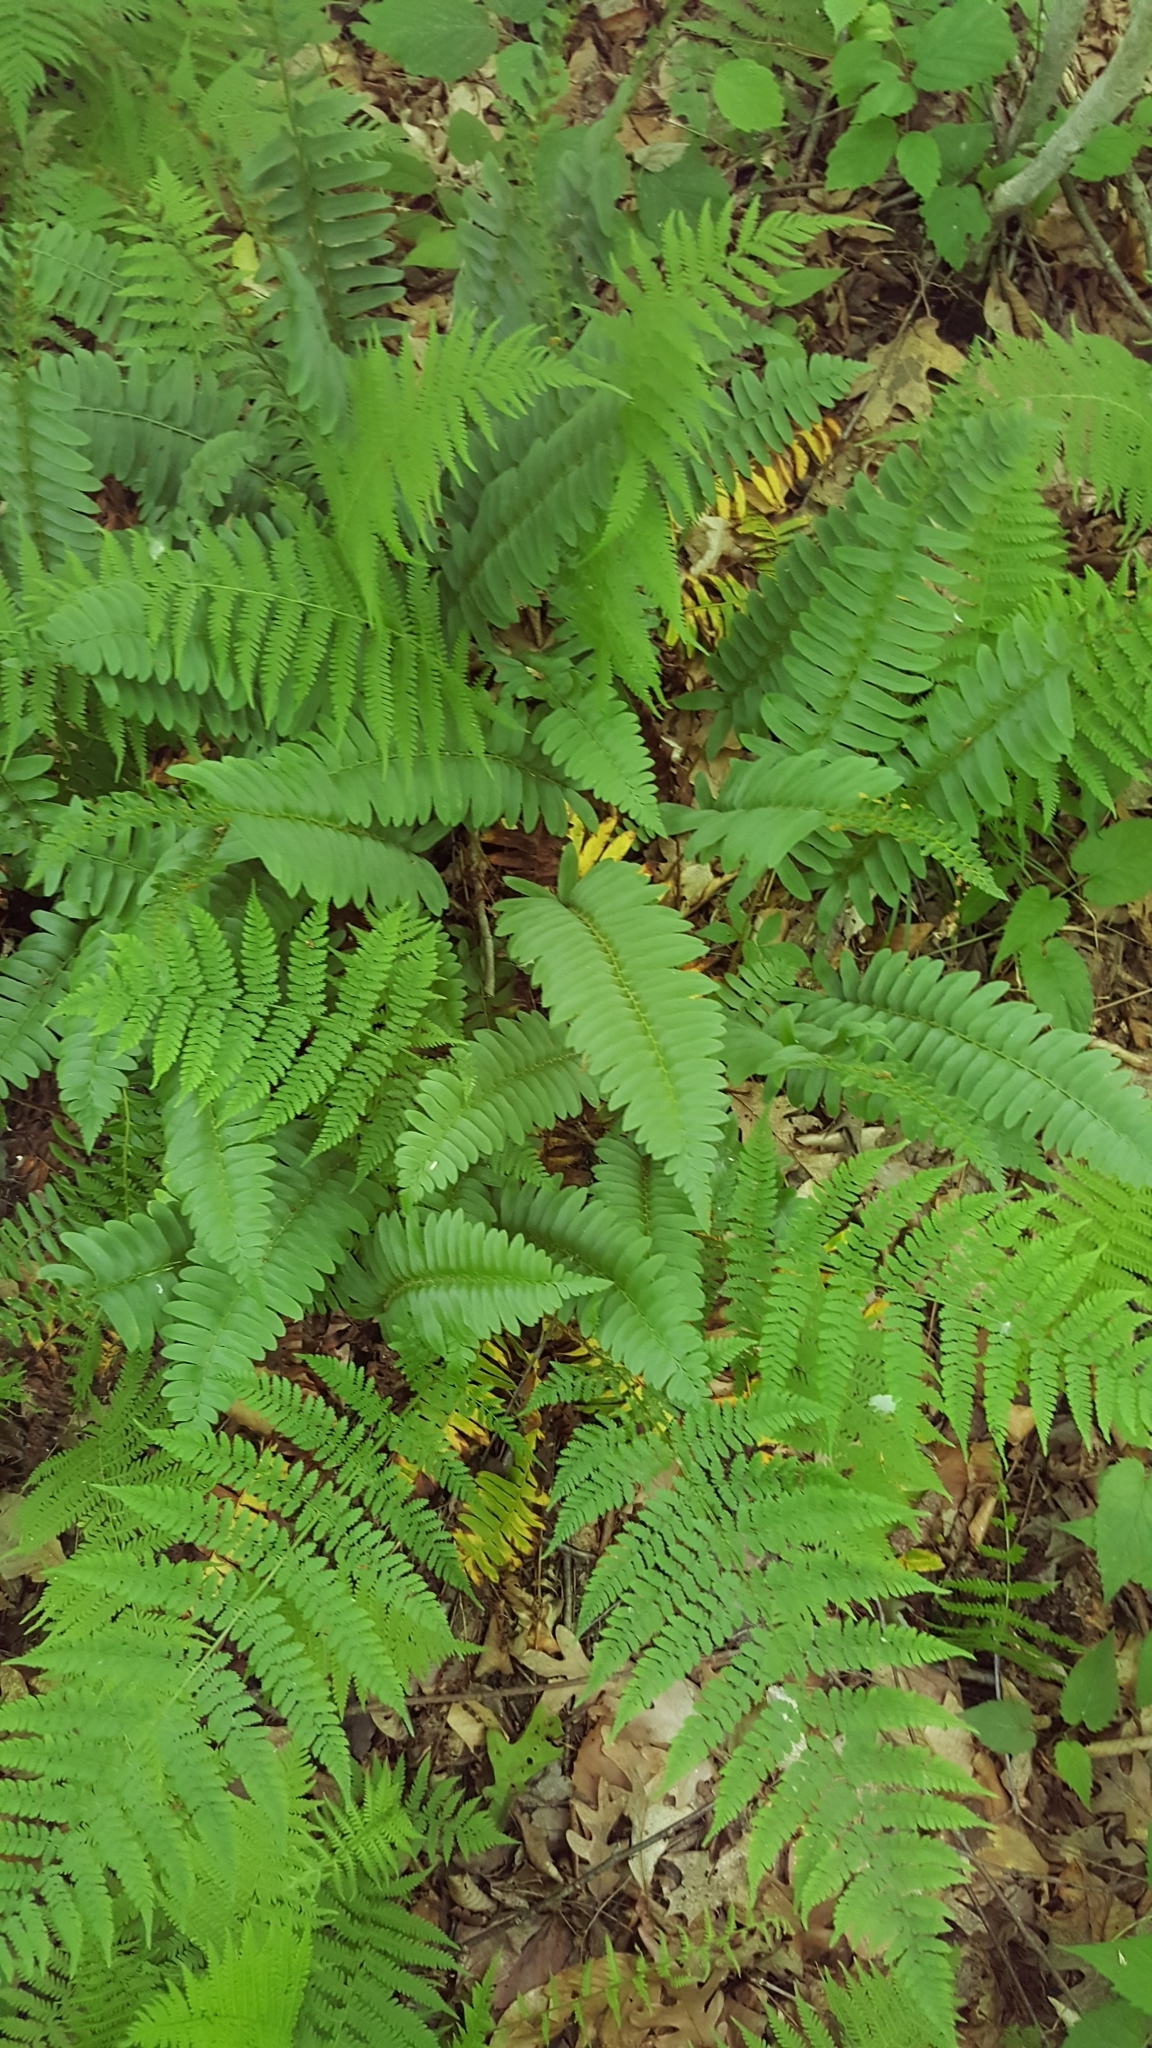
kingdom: Plantae
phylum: Tracheophyta
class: Polypodiopsida
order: Polypodiales
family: Dryopteridaceae
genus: Polystichum
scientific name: Polystichum acrostichoides
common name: Christmas fern
